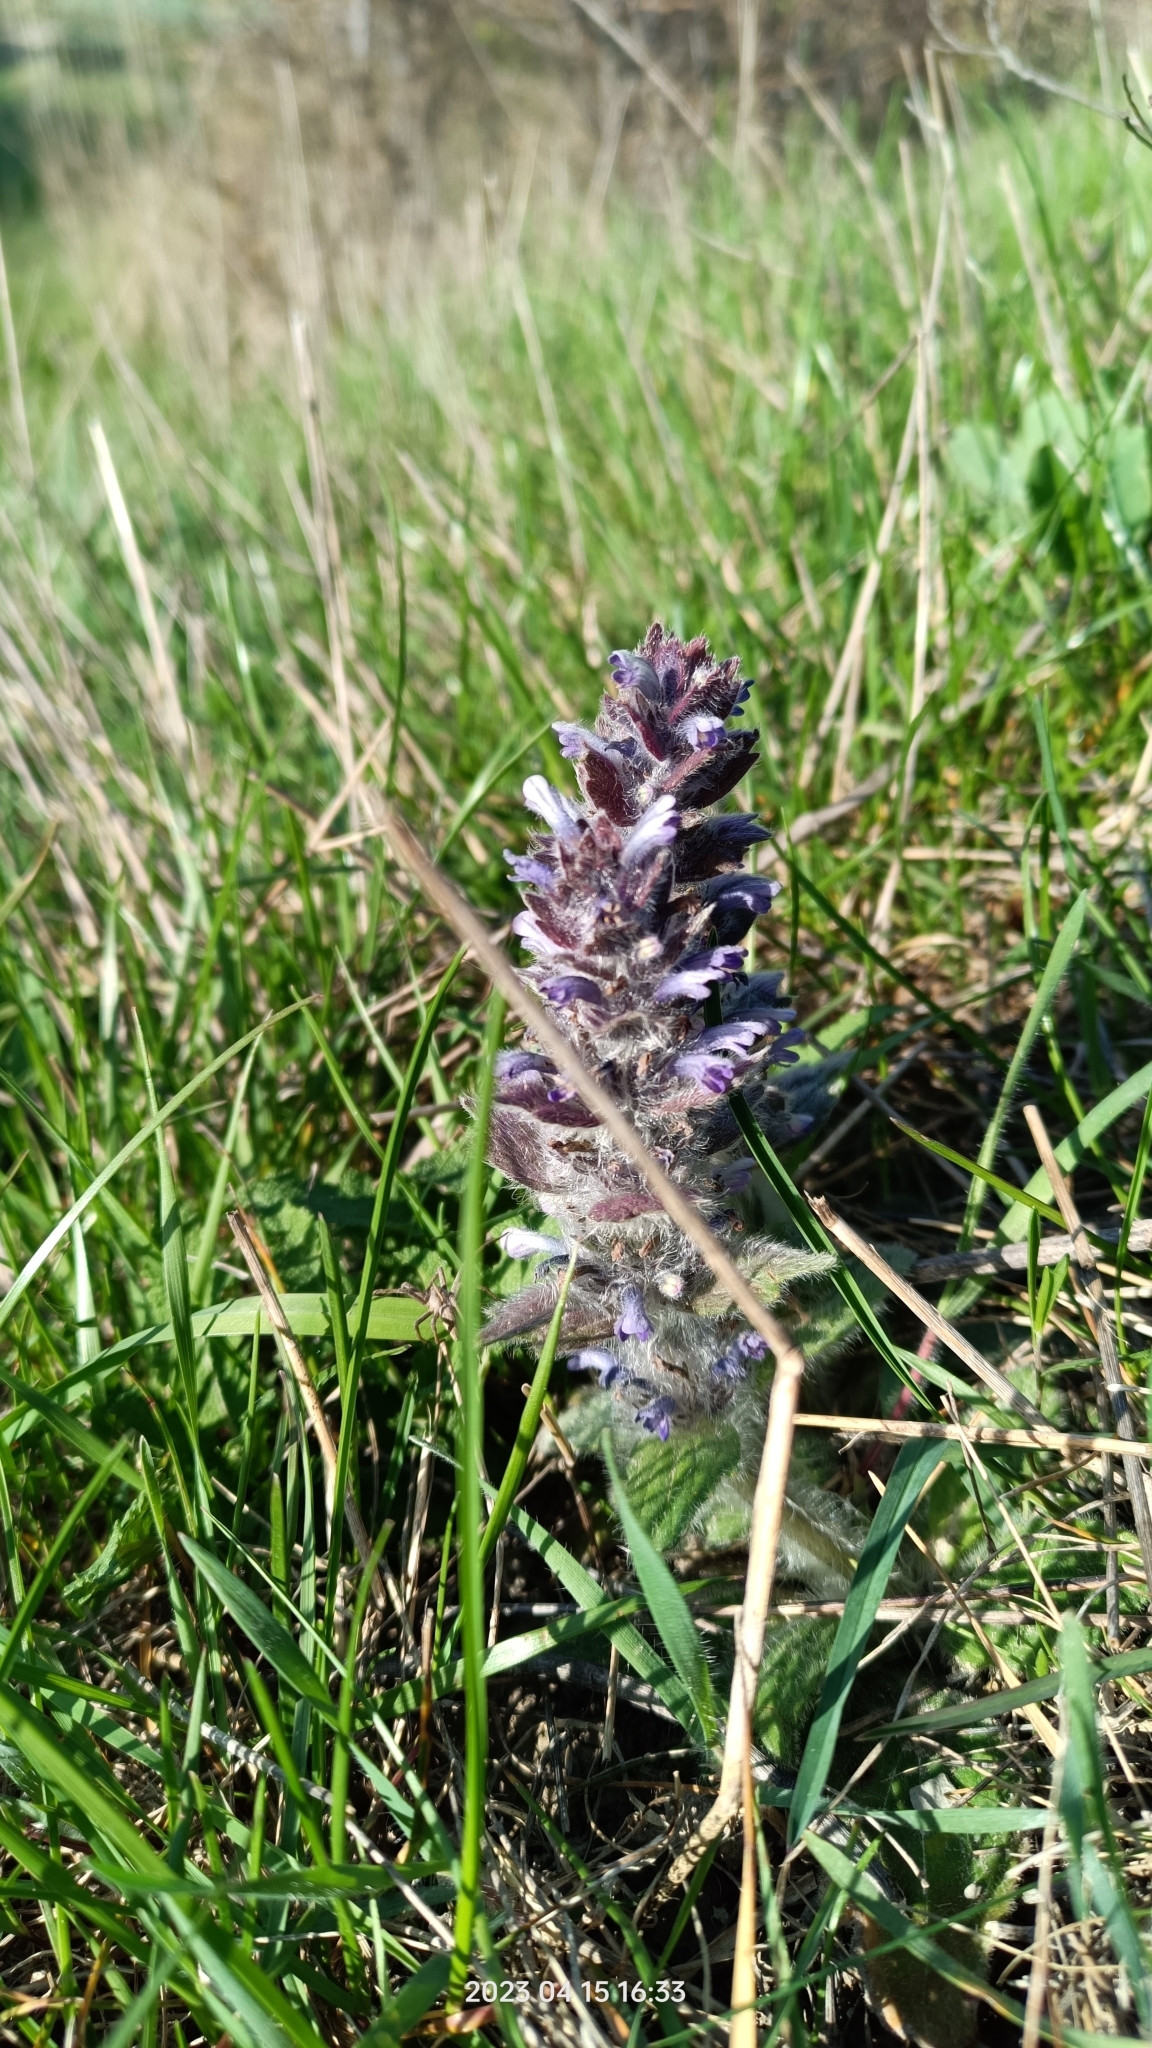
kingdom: Plantae
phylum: Tracheophyta
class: Magnoliopsida
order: Lamiales
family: Lamiaceae
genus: Ajuga
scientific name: Ajuga orientalis
